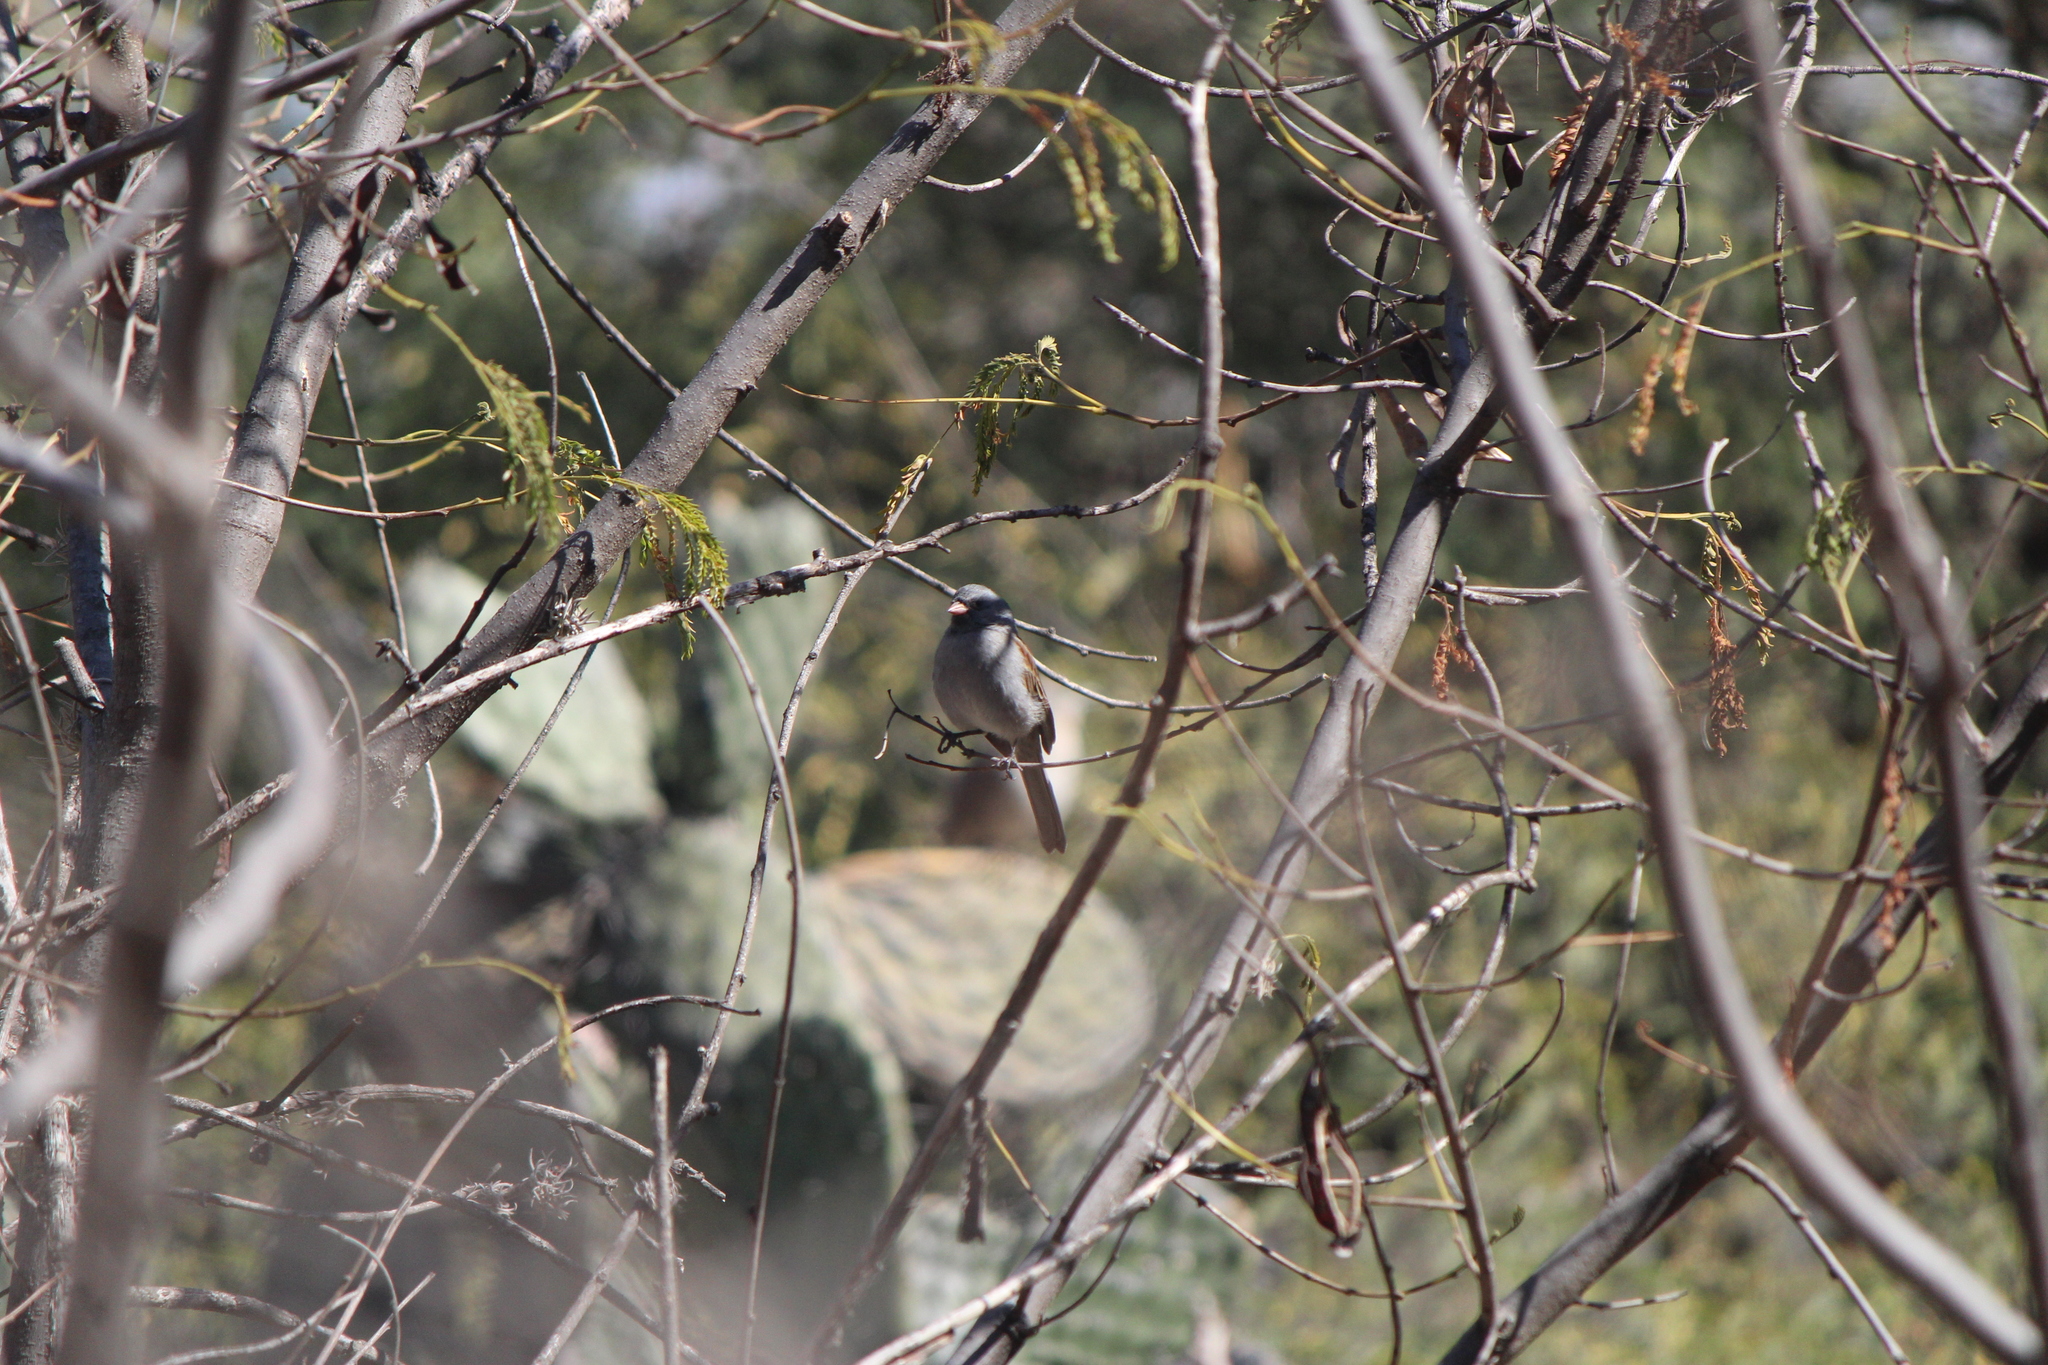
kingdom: Animalia
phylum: Chordata
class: Aves
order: Passeriformes
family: Passerellidae
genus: Spizella
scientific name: Spizella atrogularis
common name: Black-chinned sparrow
